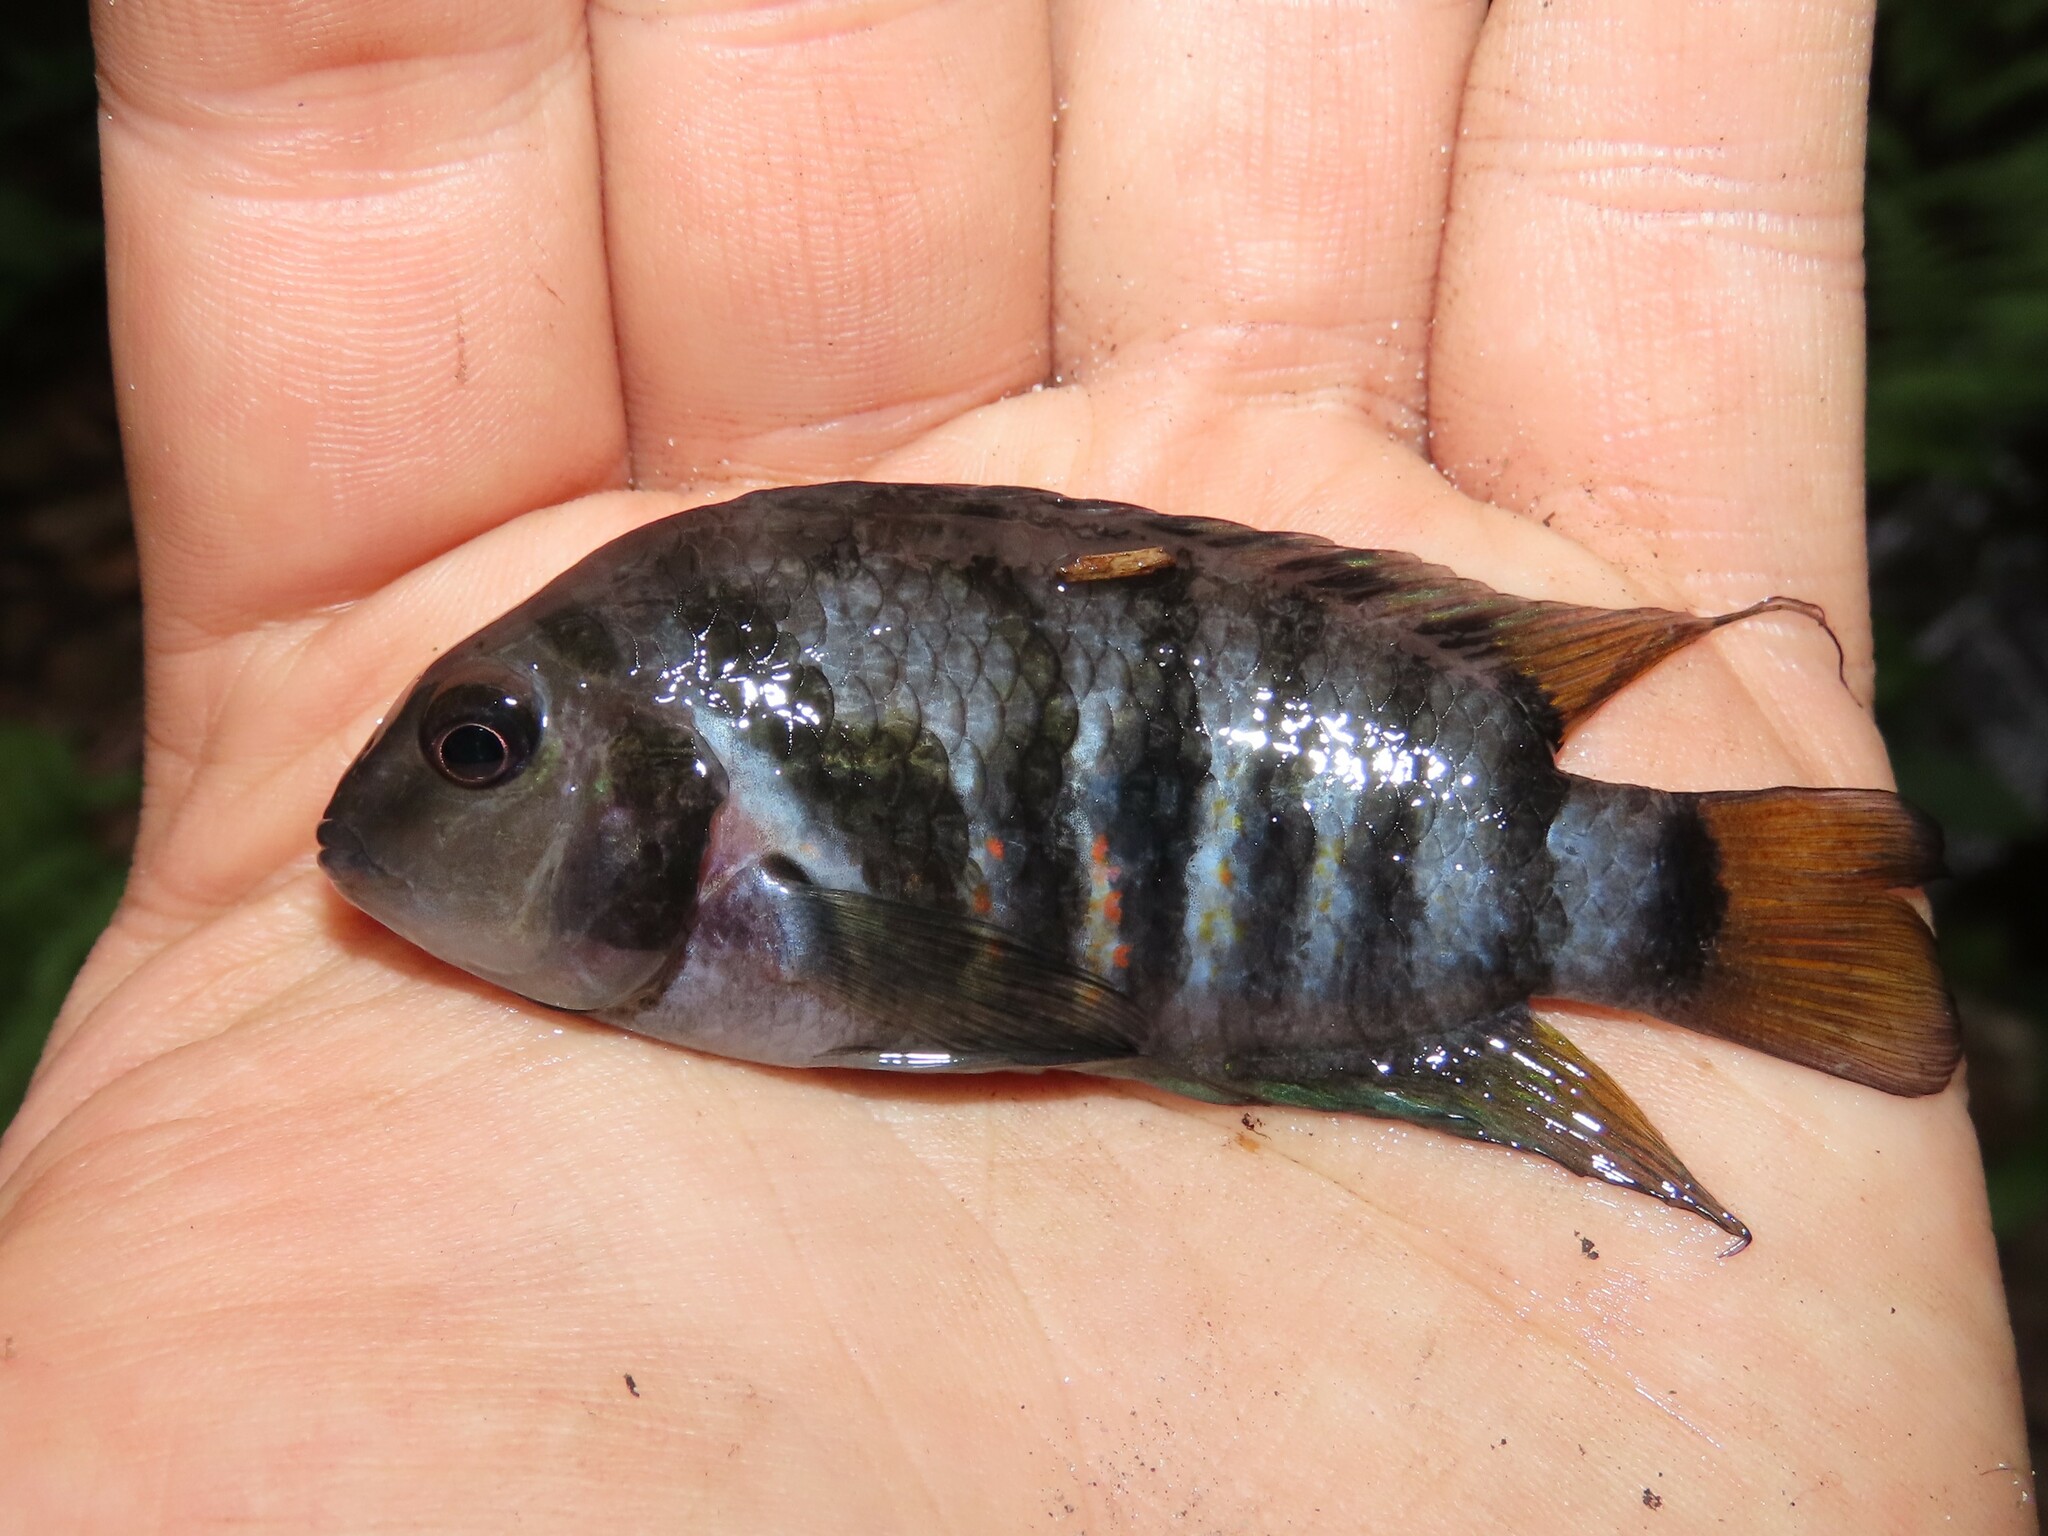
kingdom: Animalia
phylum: Chordata
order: Perciformes
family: Cichlidae
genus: Amatitlania
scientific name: Amatitlania nigrofasciata
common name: Convict cichlid
